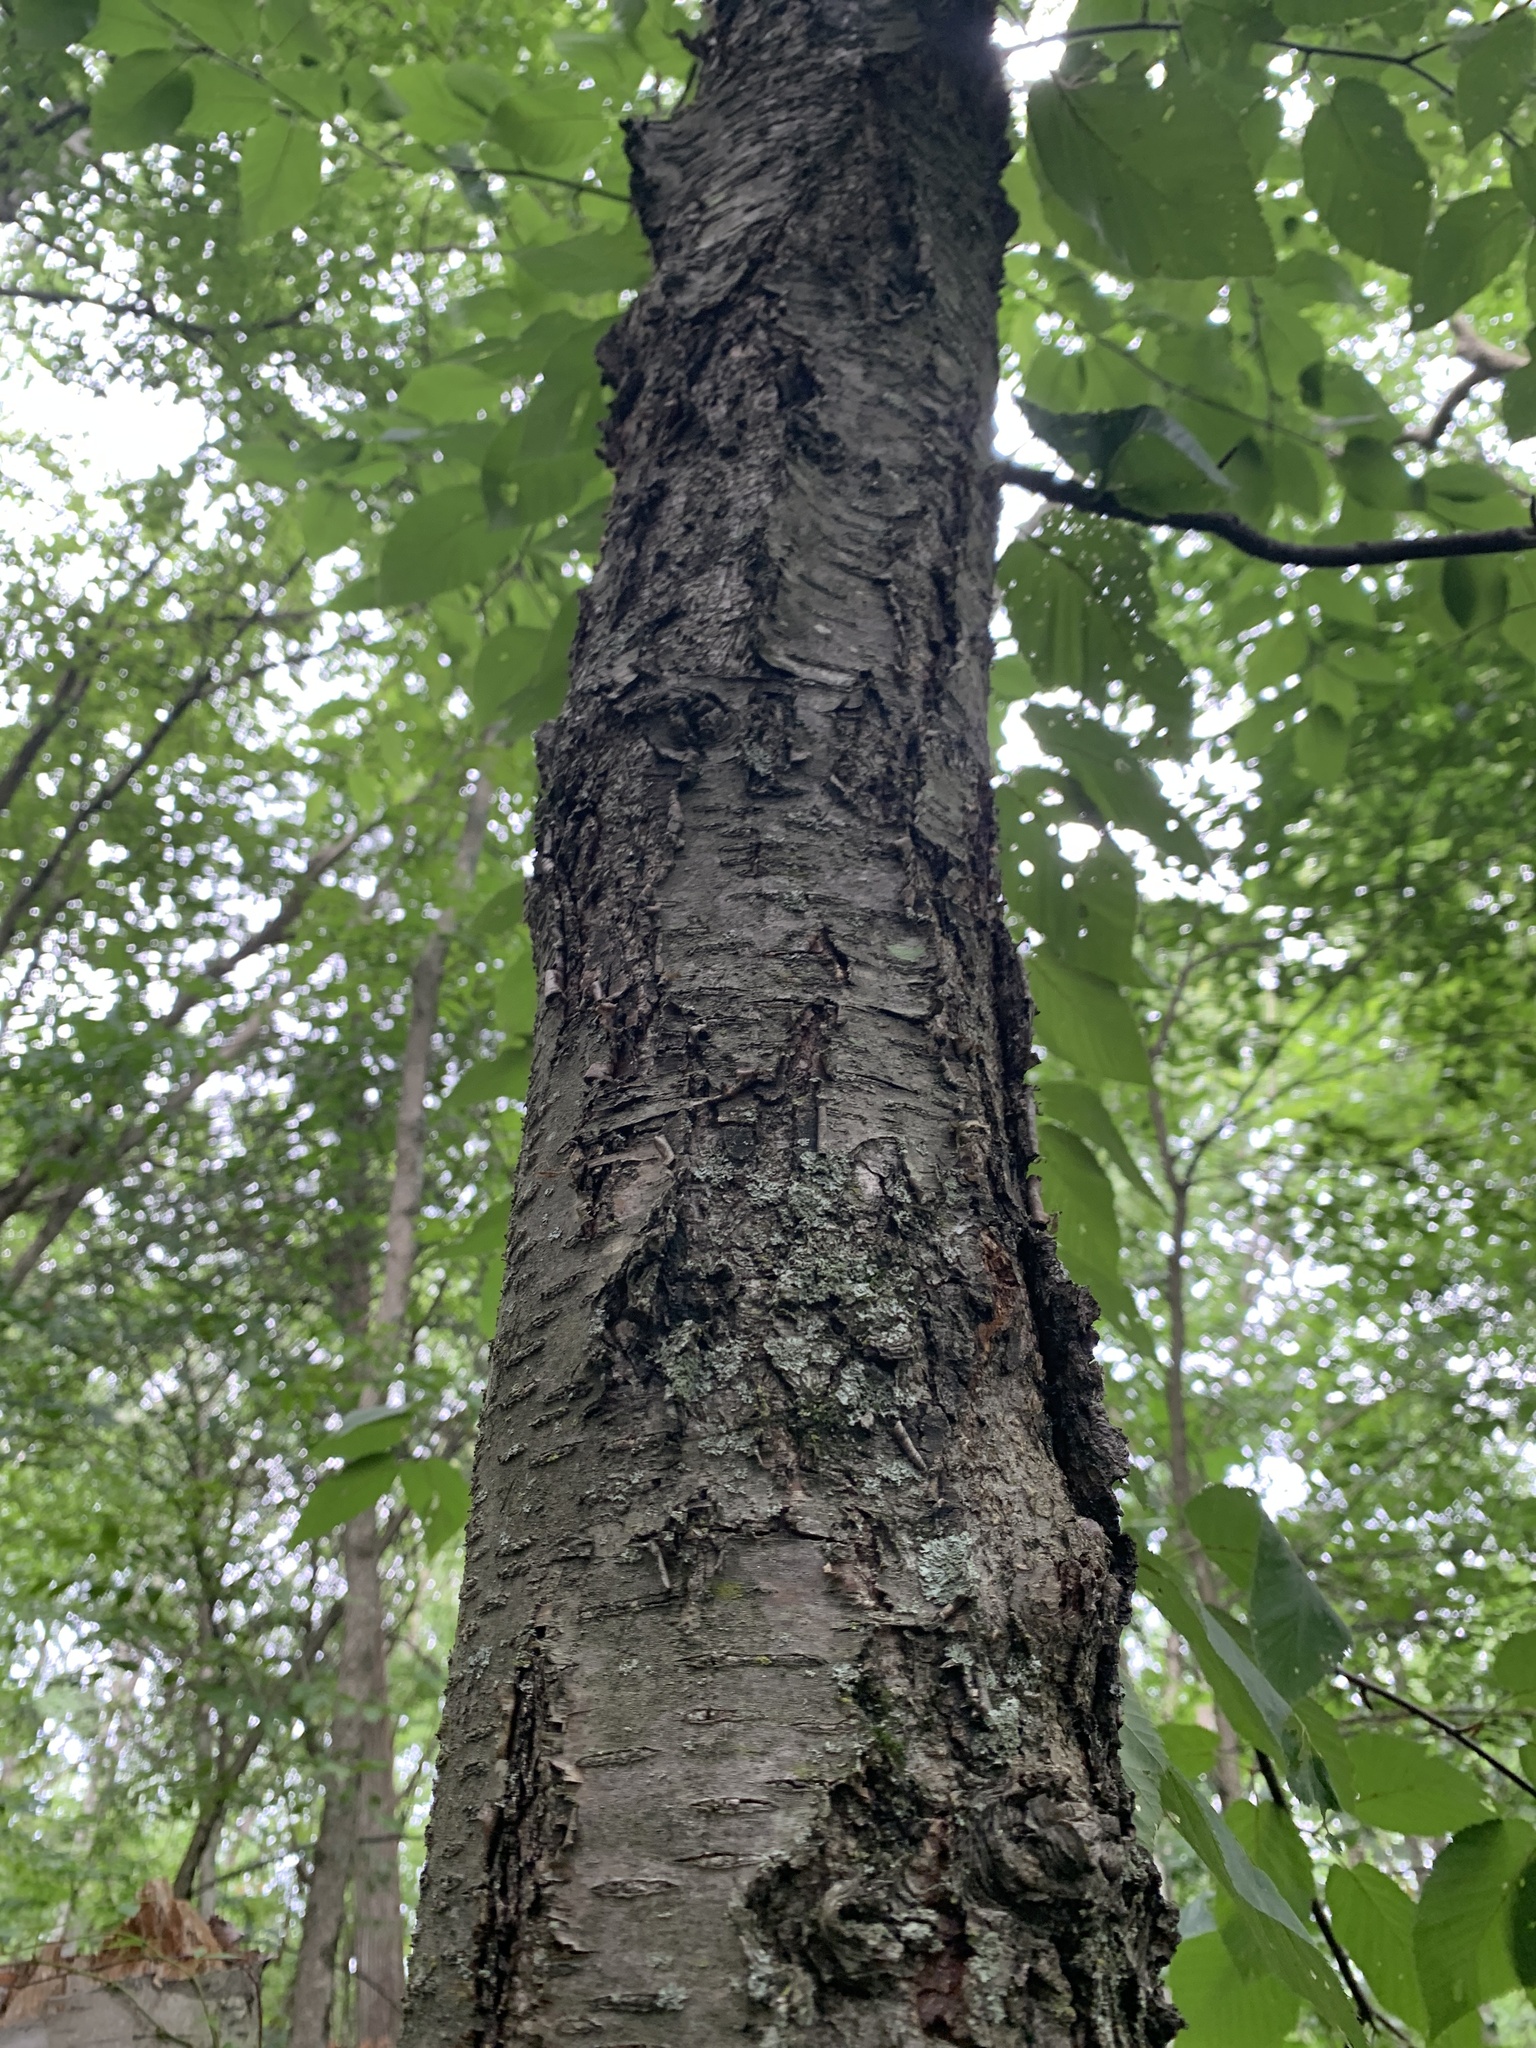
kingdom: Plantae
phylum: Tracheophyta
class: Magnoliopsida
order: Fagales
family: Betulaceae
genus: Betula
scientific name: Betula lenta
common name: Black birch
